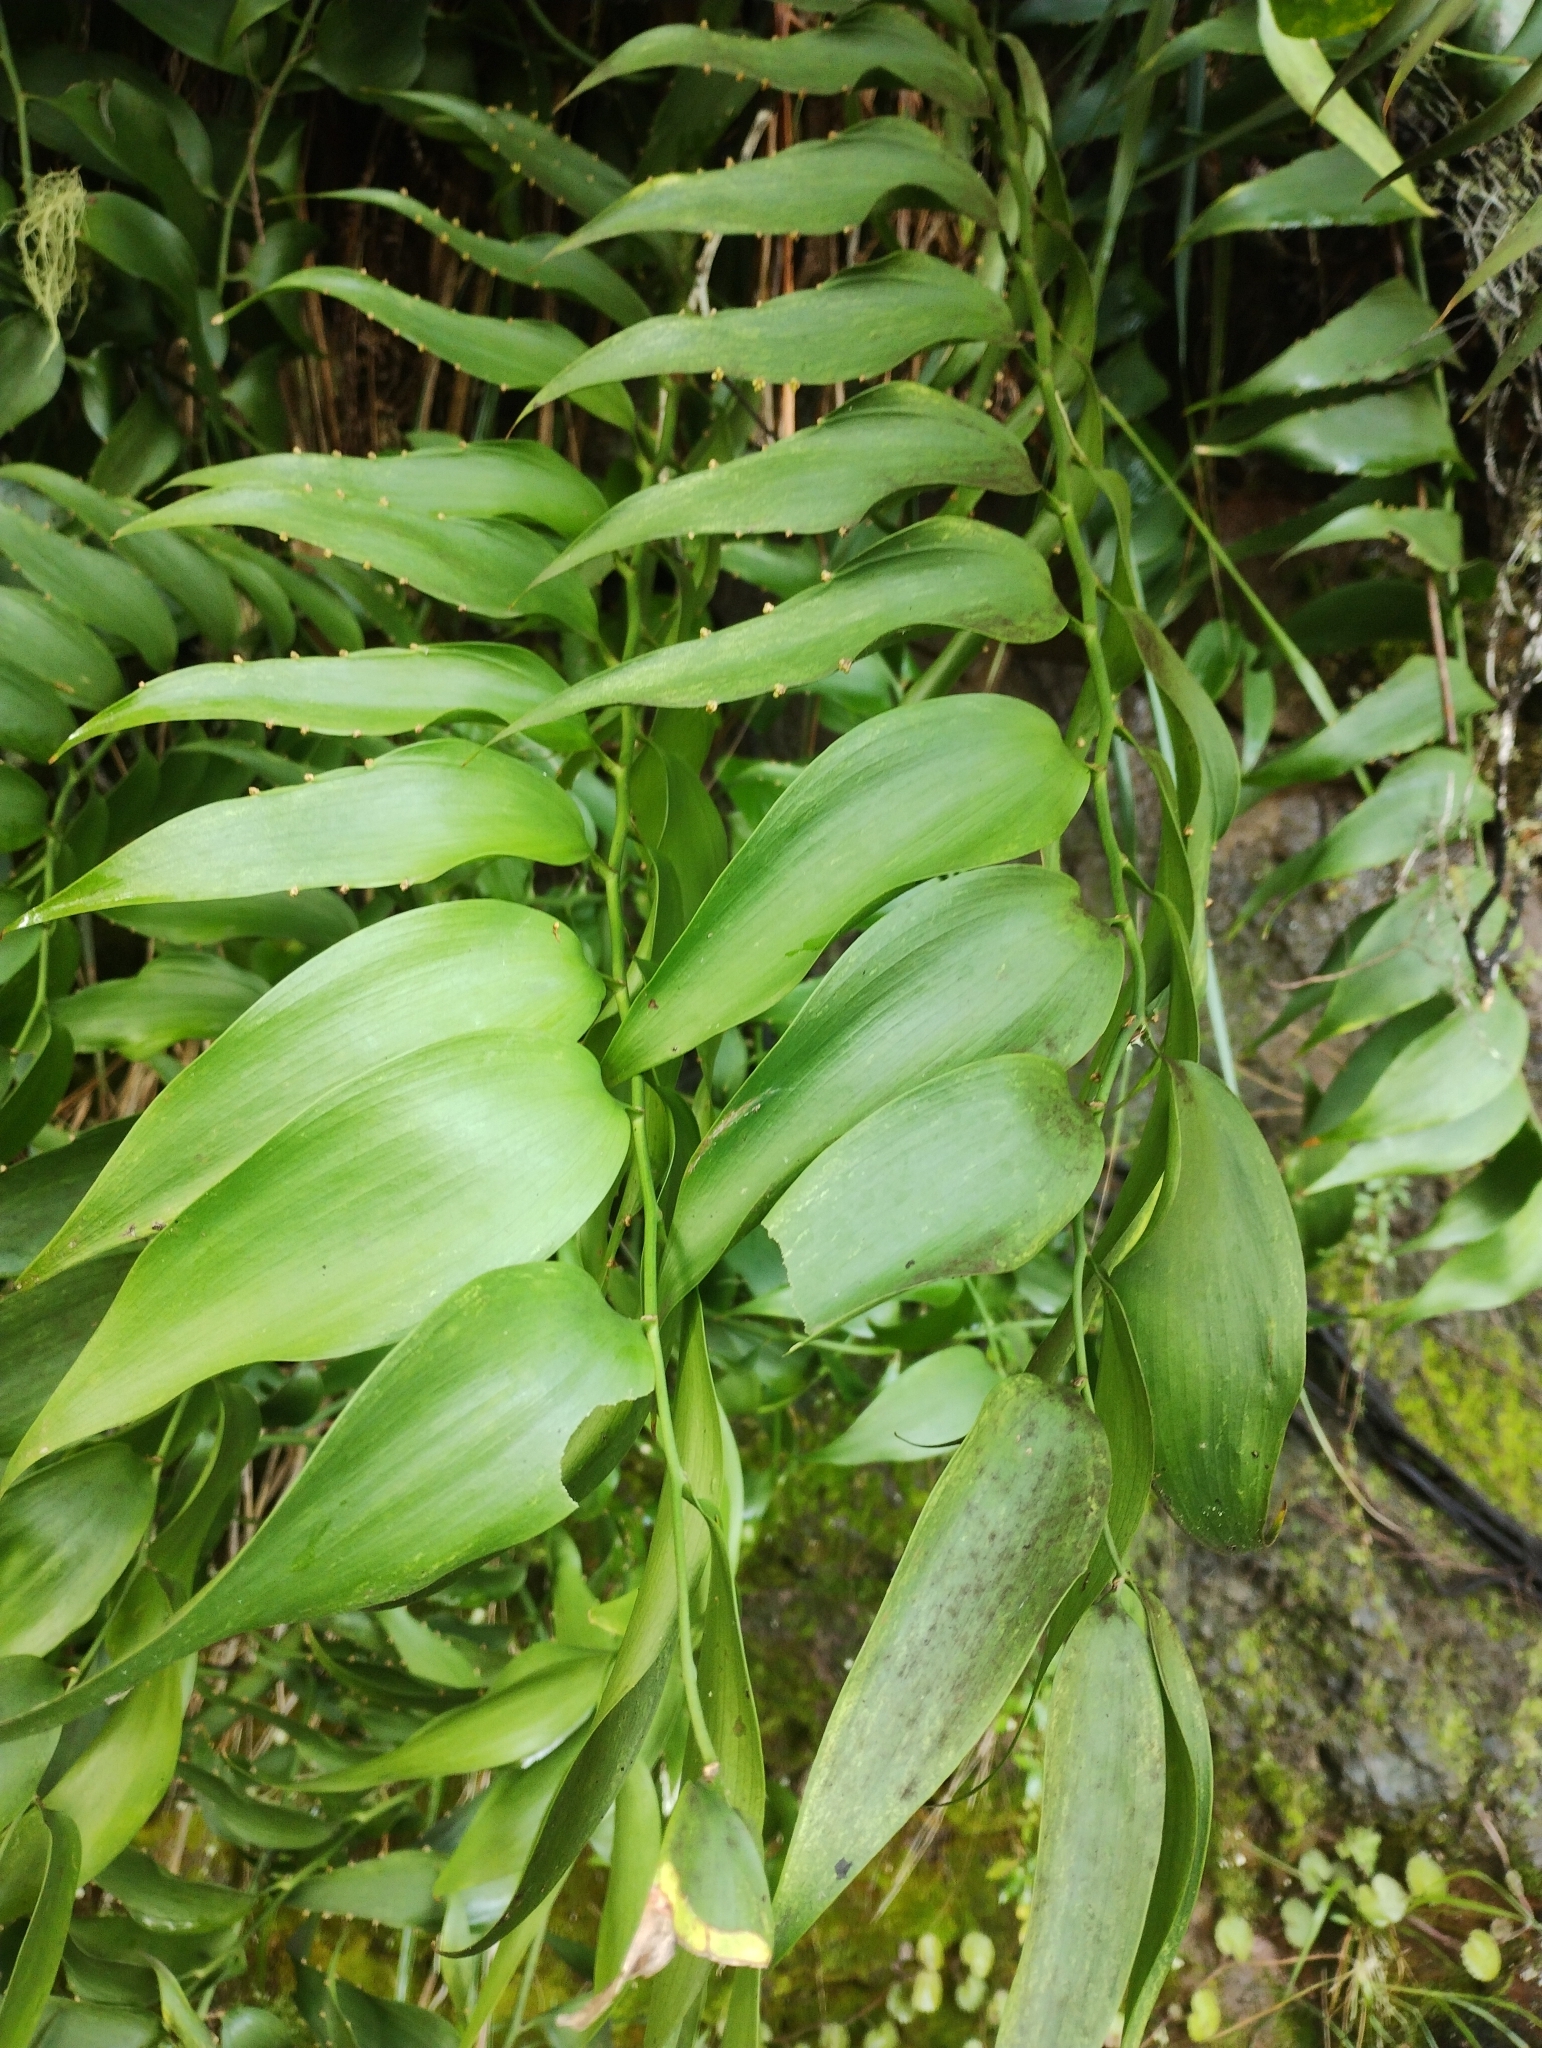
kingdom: Plantae
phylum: Tracheophyta
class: Liliopsida
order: Asparagales
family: Asparagaceae
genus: Semele
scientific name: Semele androgyna
